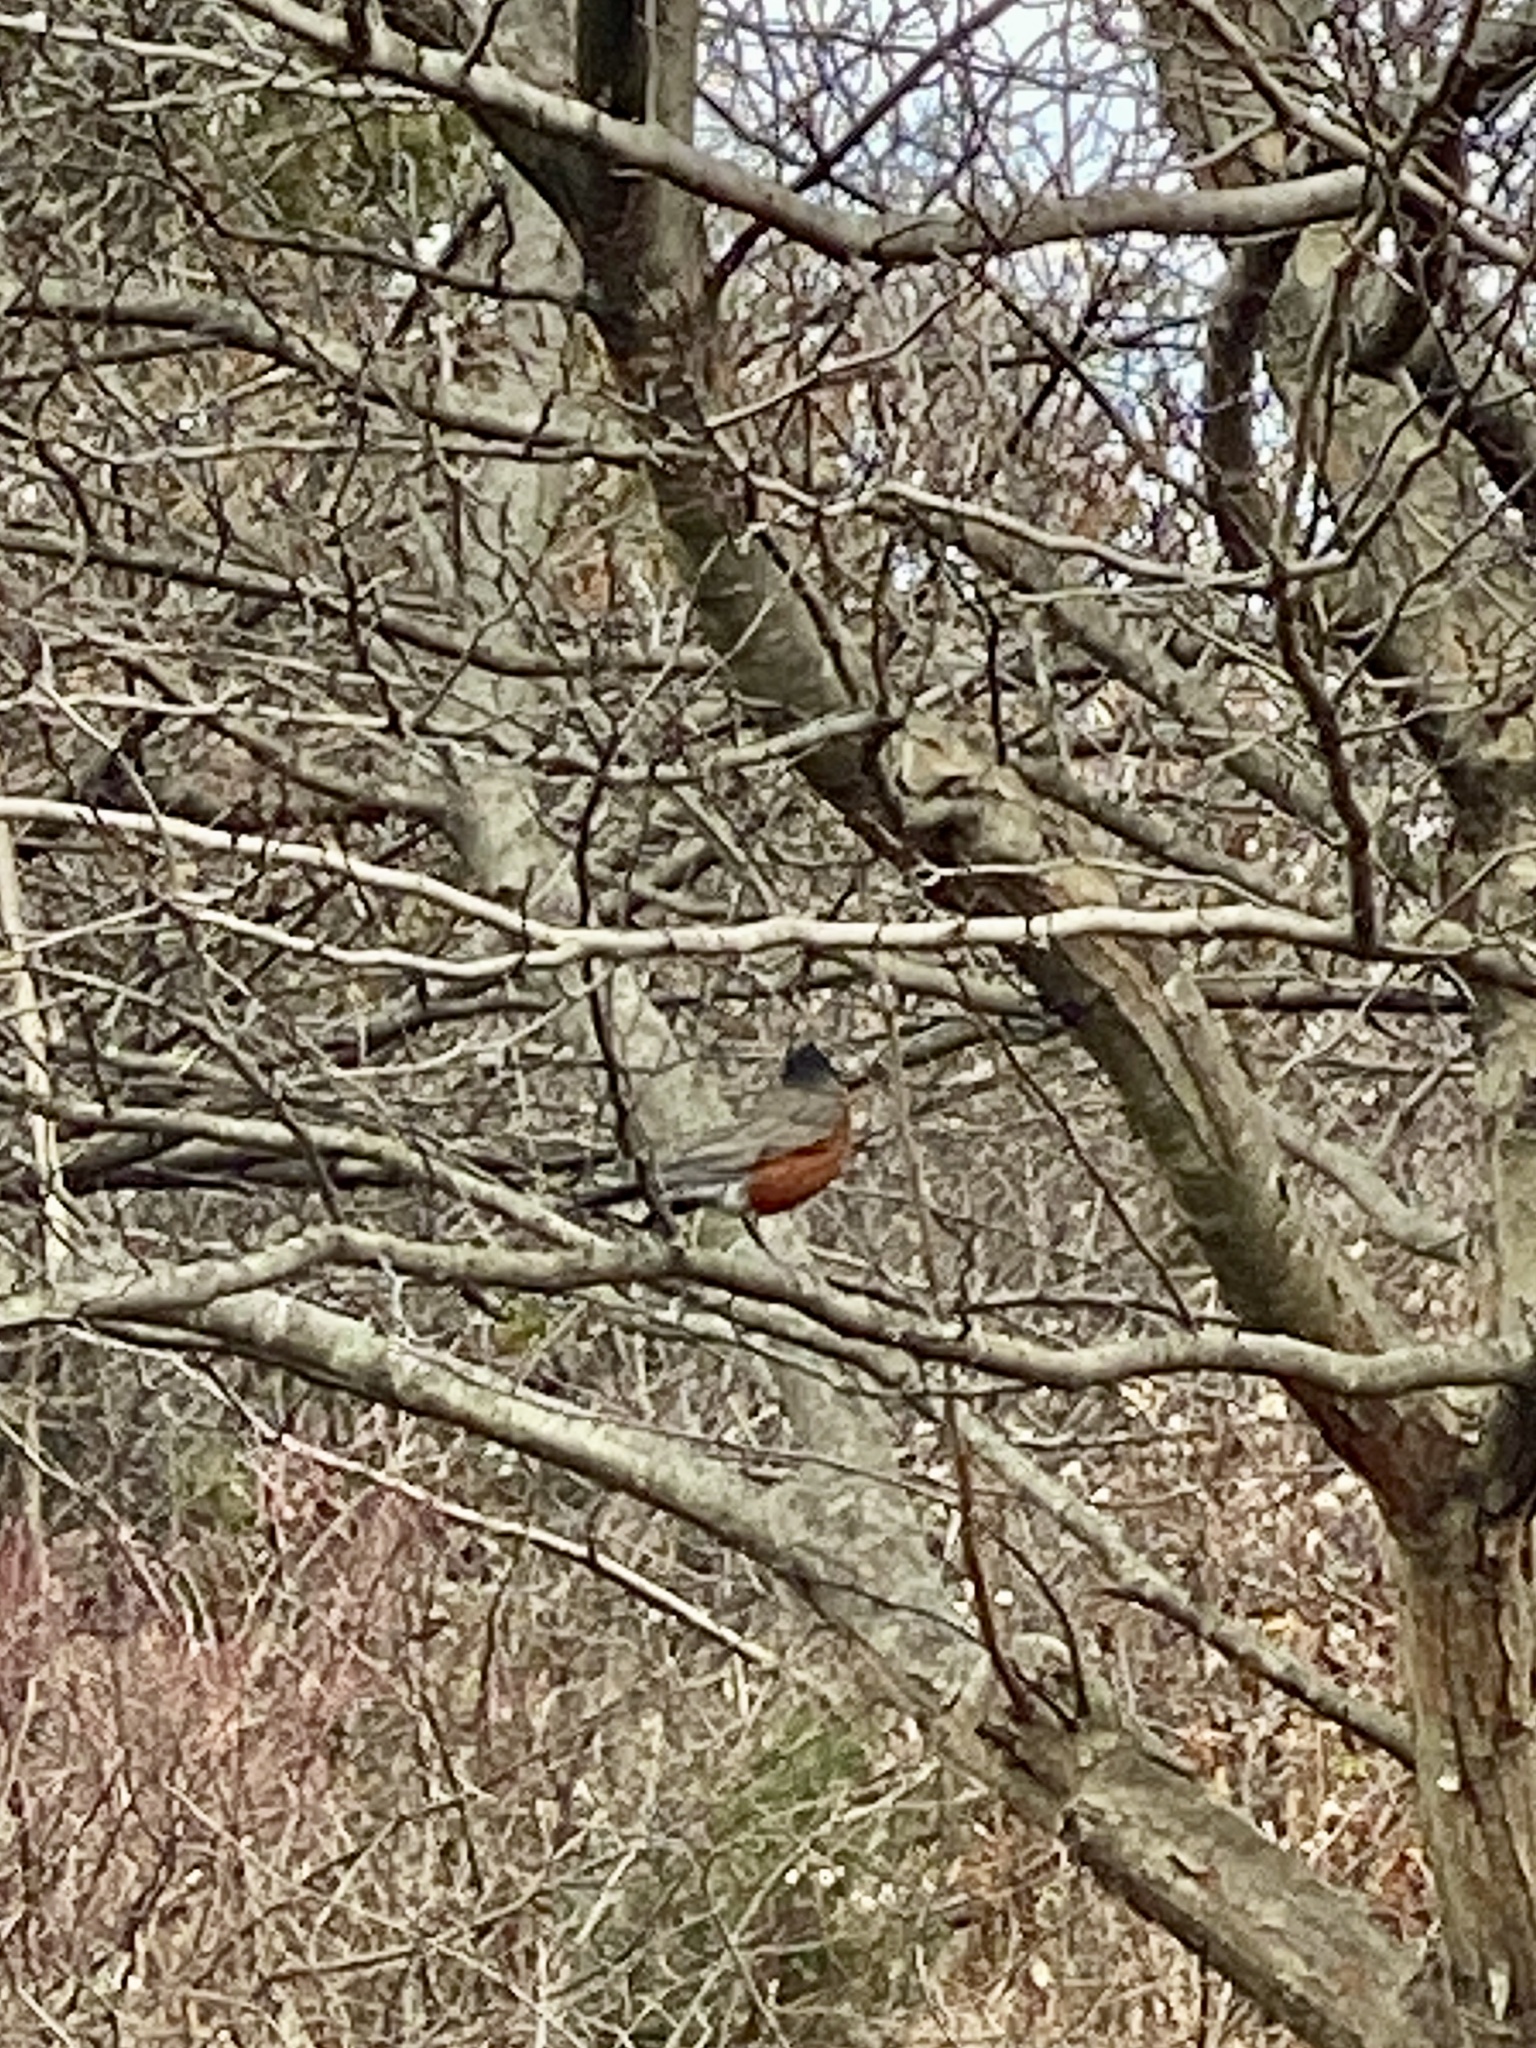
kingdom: Animalia
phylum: Chordata
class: Aves
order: Passeriformes
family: Turdidae
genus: Turdus
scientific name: Turdus migratorius
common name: American robin
